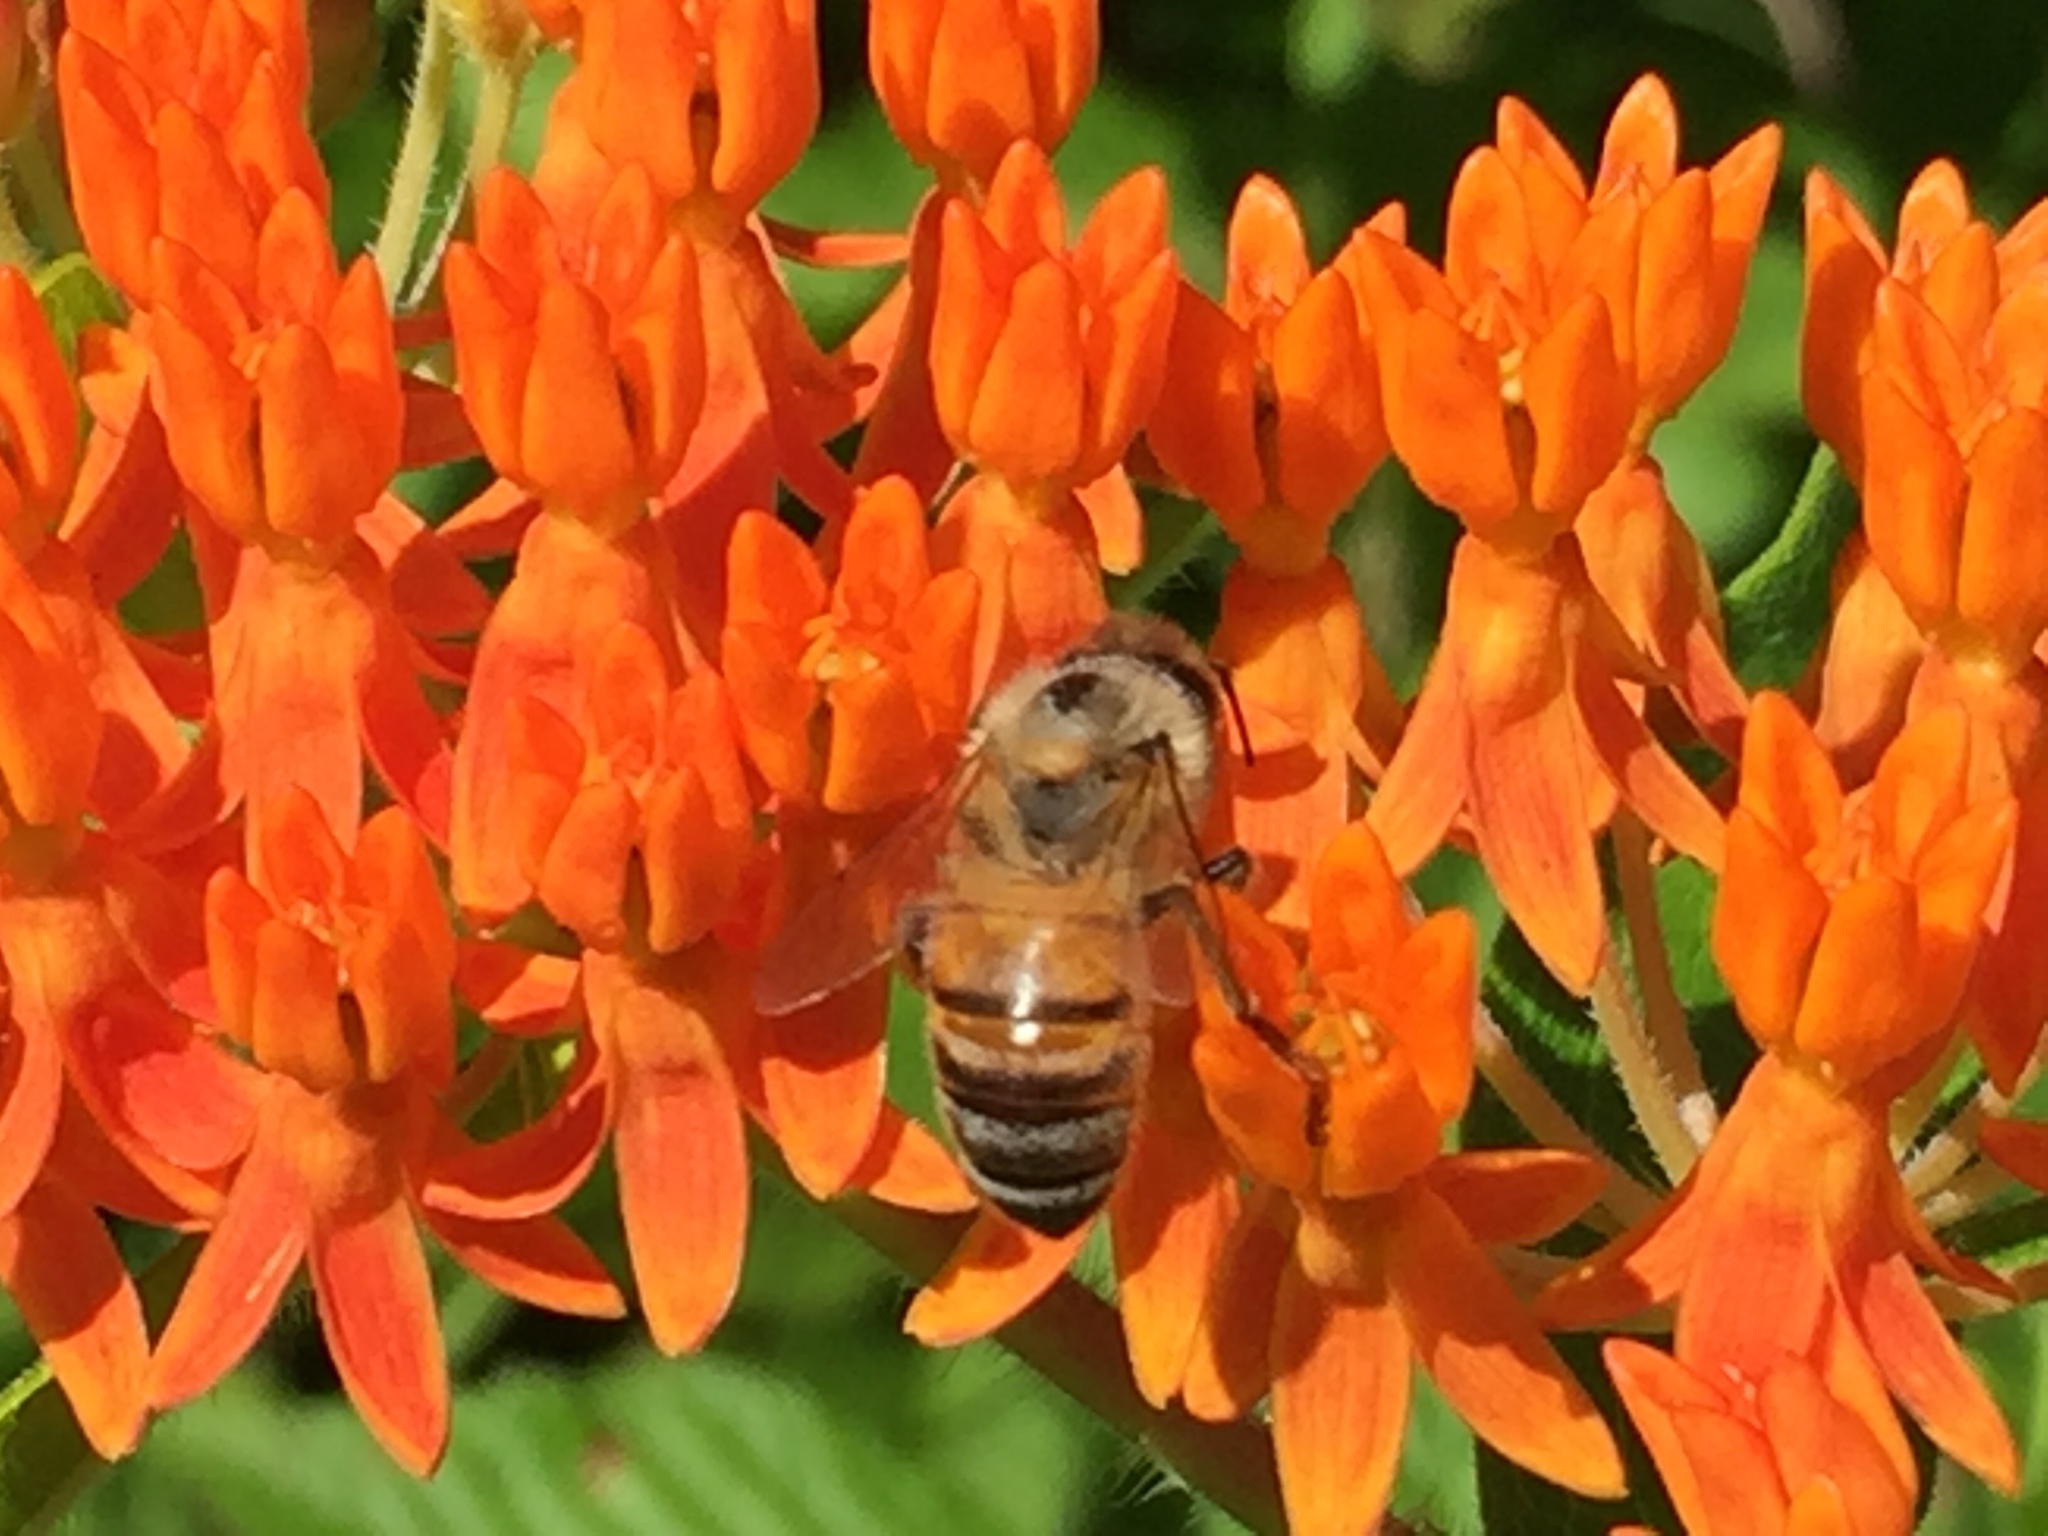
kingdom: Animalia
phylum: Arthropoda
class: Insecta
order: Hymenoptera
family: Apidae
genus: Apis
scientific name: Apis mellifera
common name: Honey bee
